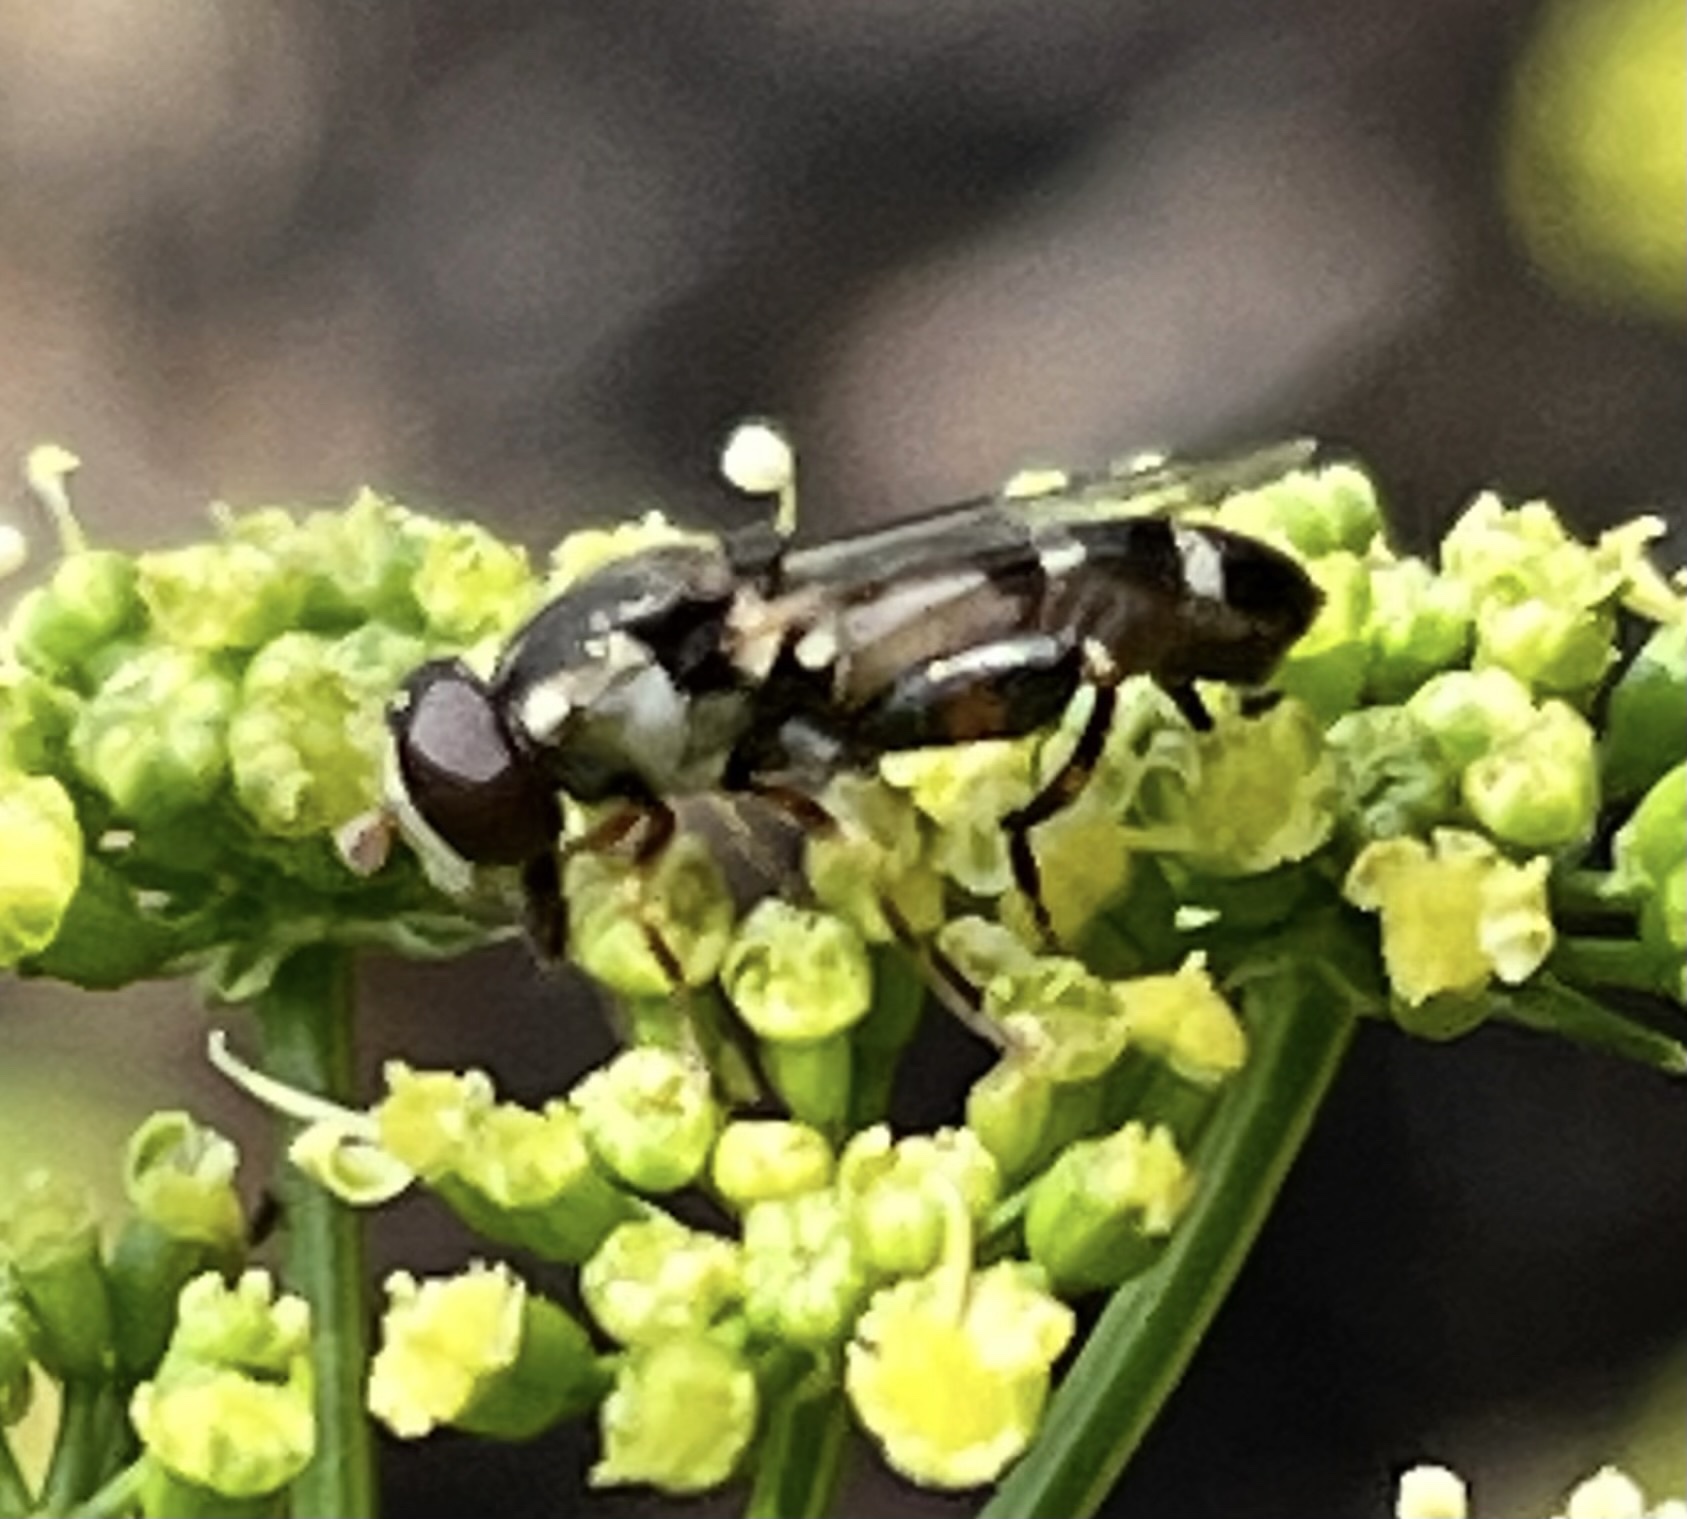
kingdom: Animalia
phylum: Arthropoda
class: Insecta
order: Diptera
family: Syrphidae
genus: Syritta
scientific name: Syritta pipiens
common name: Hover fly
